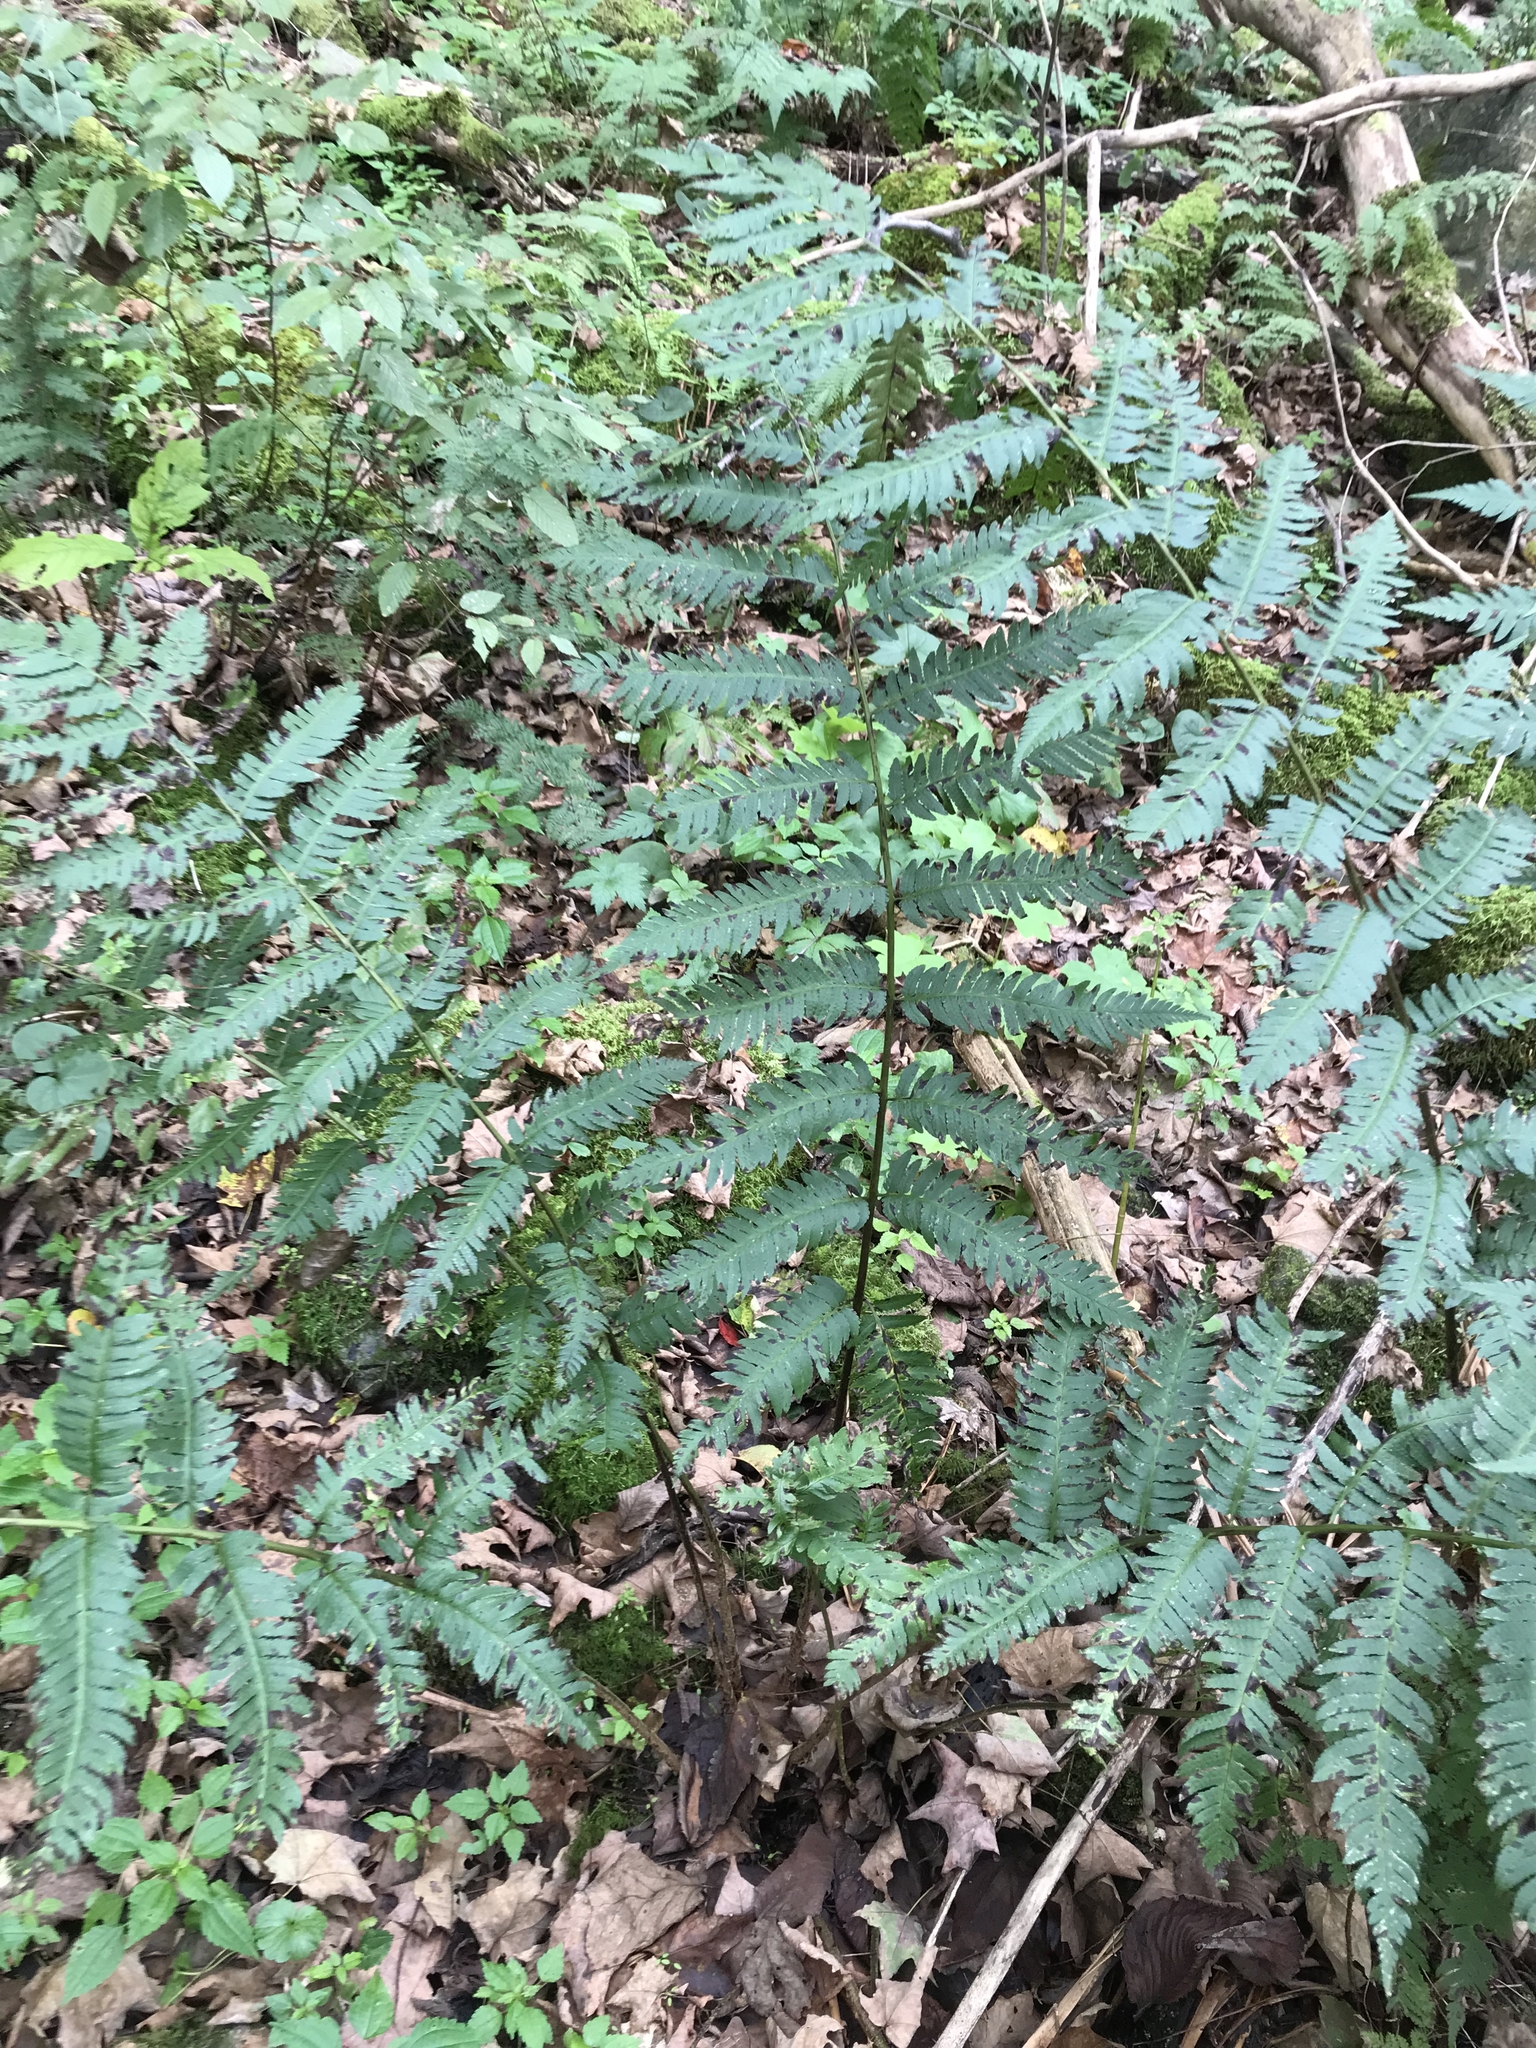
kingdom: Plantae
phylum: Tracheophyta
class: Polypodiopsida
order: Polypodiales
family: Dryopteridaceae
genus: Dryopteris
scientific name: Dryopteris goldieana
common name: Goldie's fern
